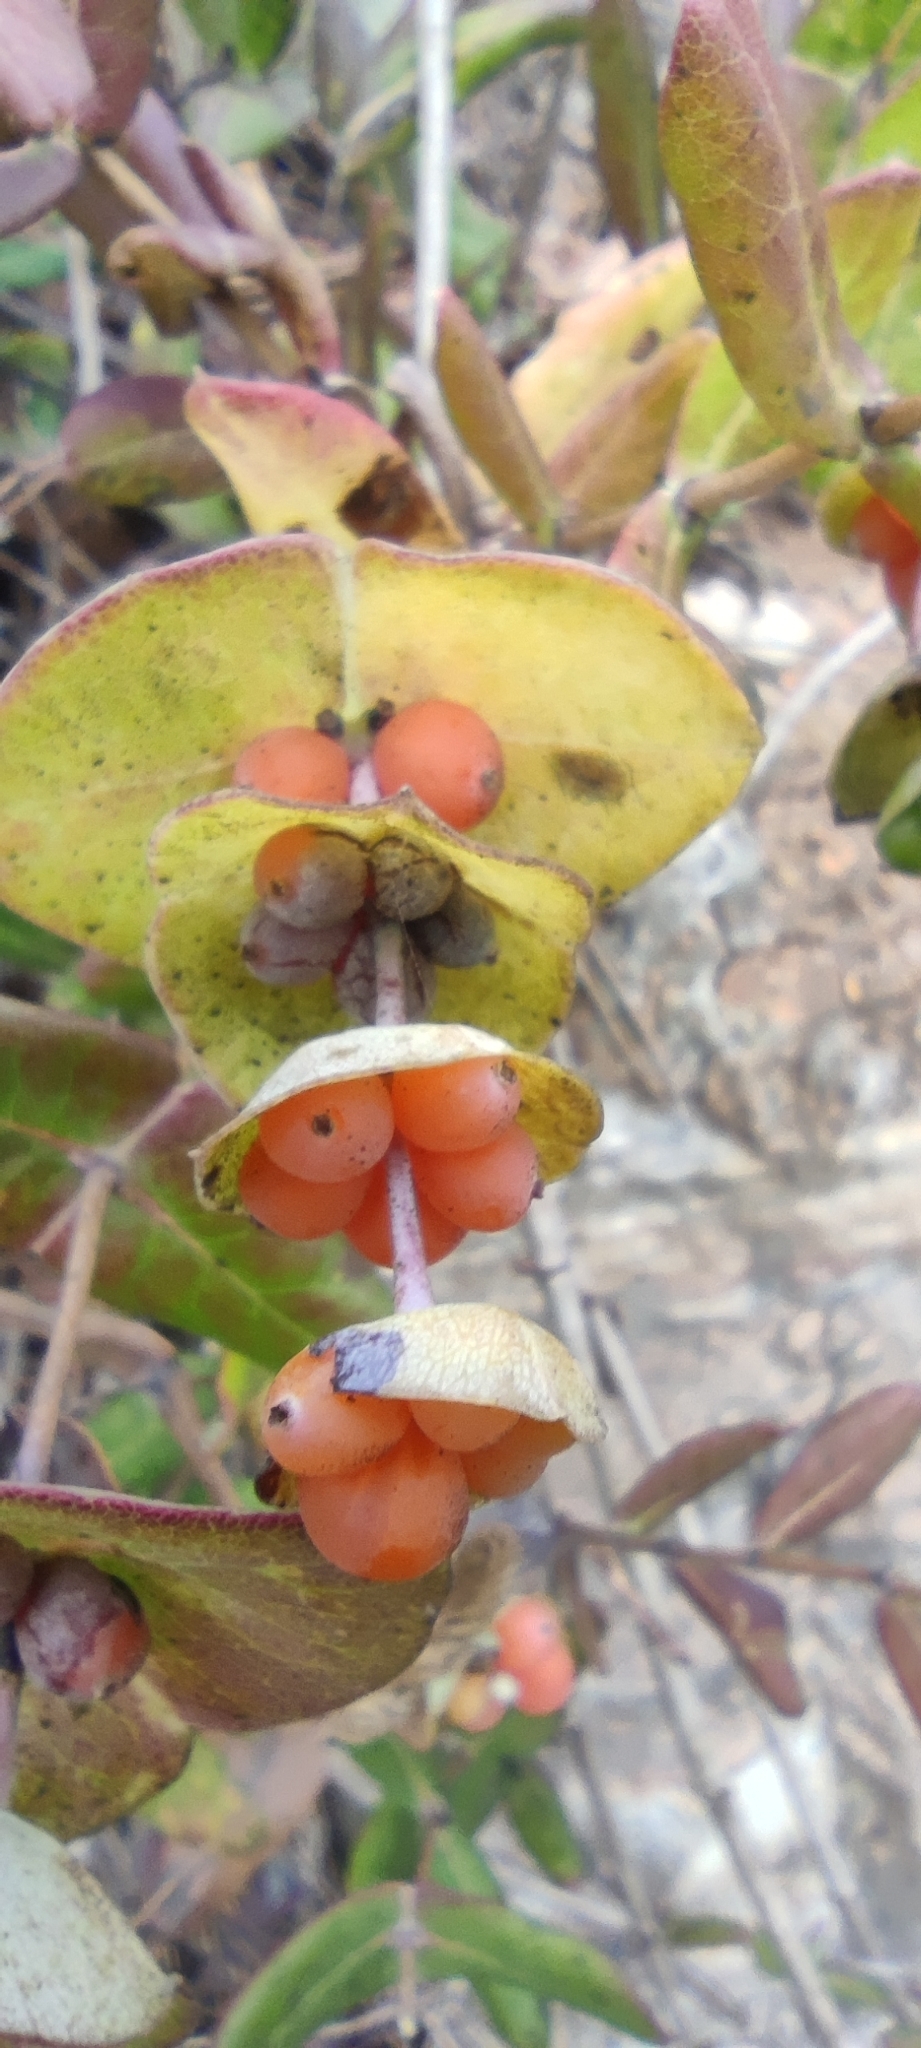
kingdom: Plantae
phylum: Tracheophyta
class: Magnoliopsida
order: Dipsacales
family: Caprifoliaceae
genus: Lonicera
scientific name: Lonicera implexa
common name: Minorca honeysuckle
